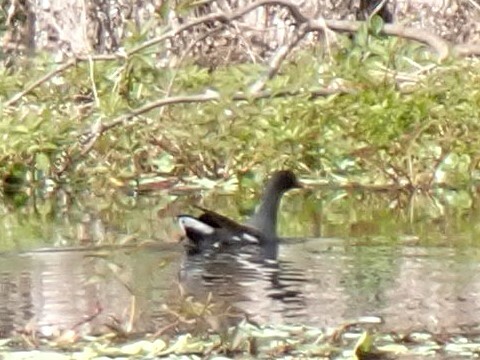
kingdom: Animalia
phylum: Chordata
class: Aves
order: Gruiformes
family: Rallidae
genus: Gallinula
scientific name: Gallinula chloropus
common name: Common moorhen
